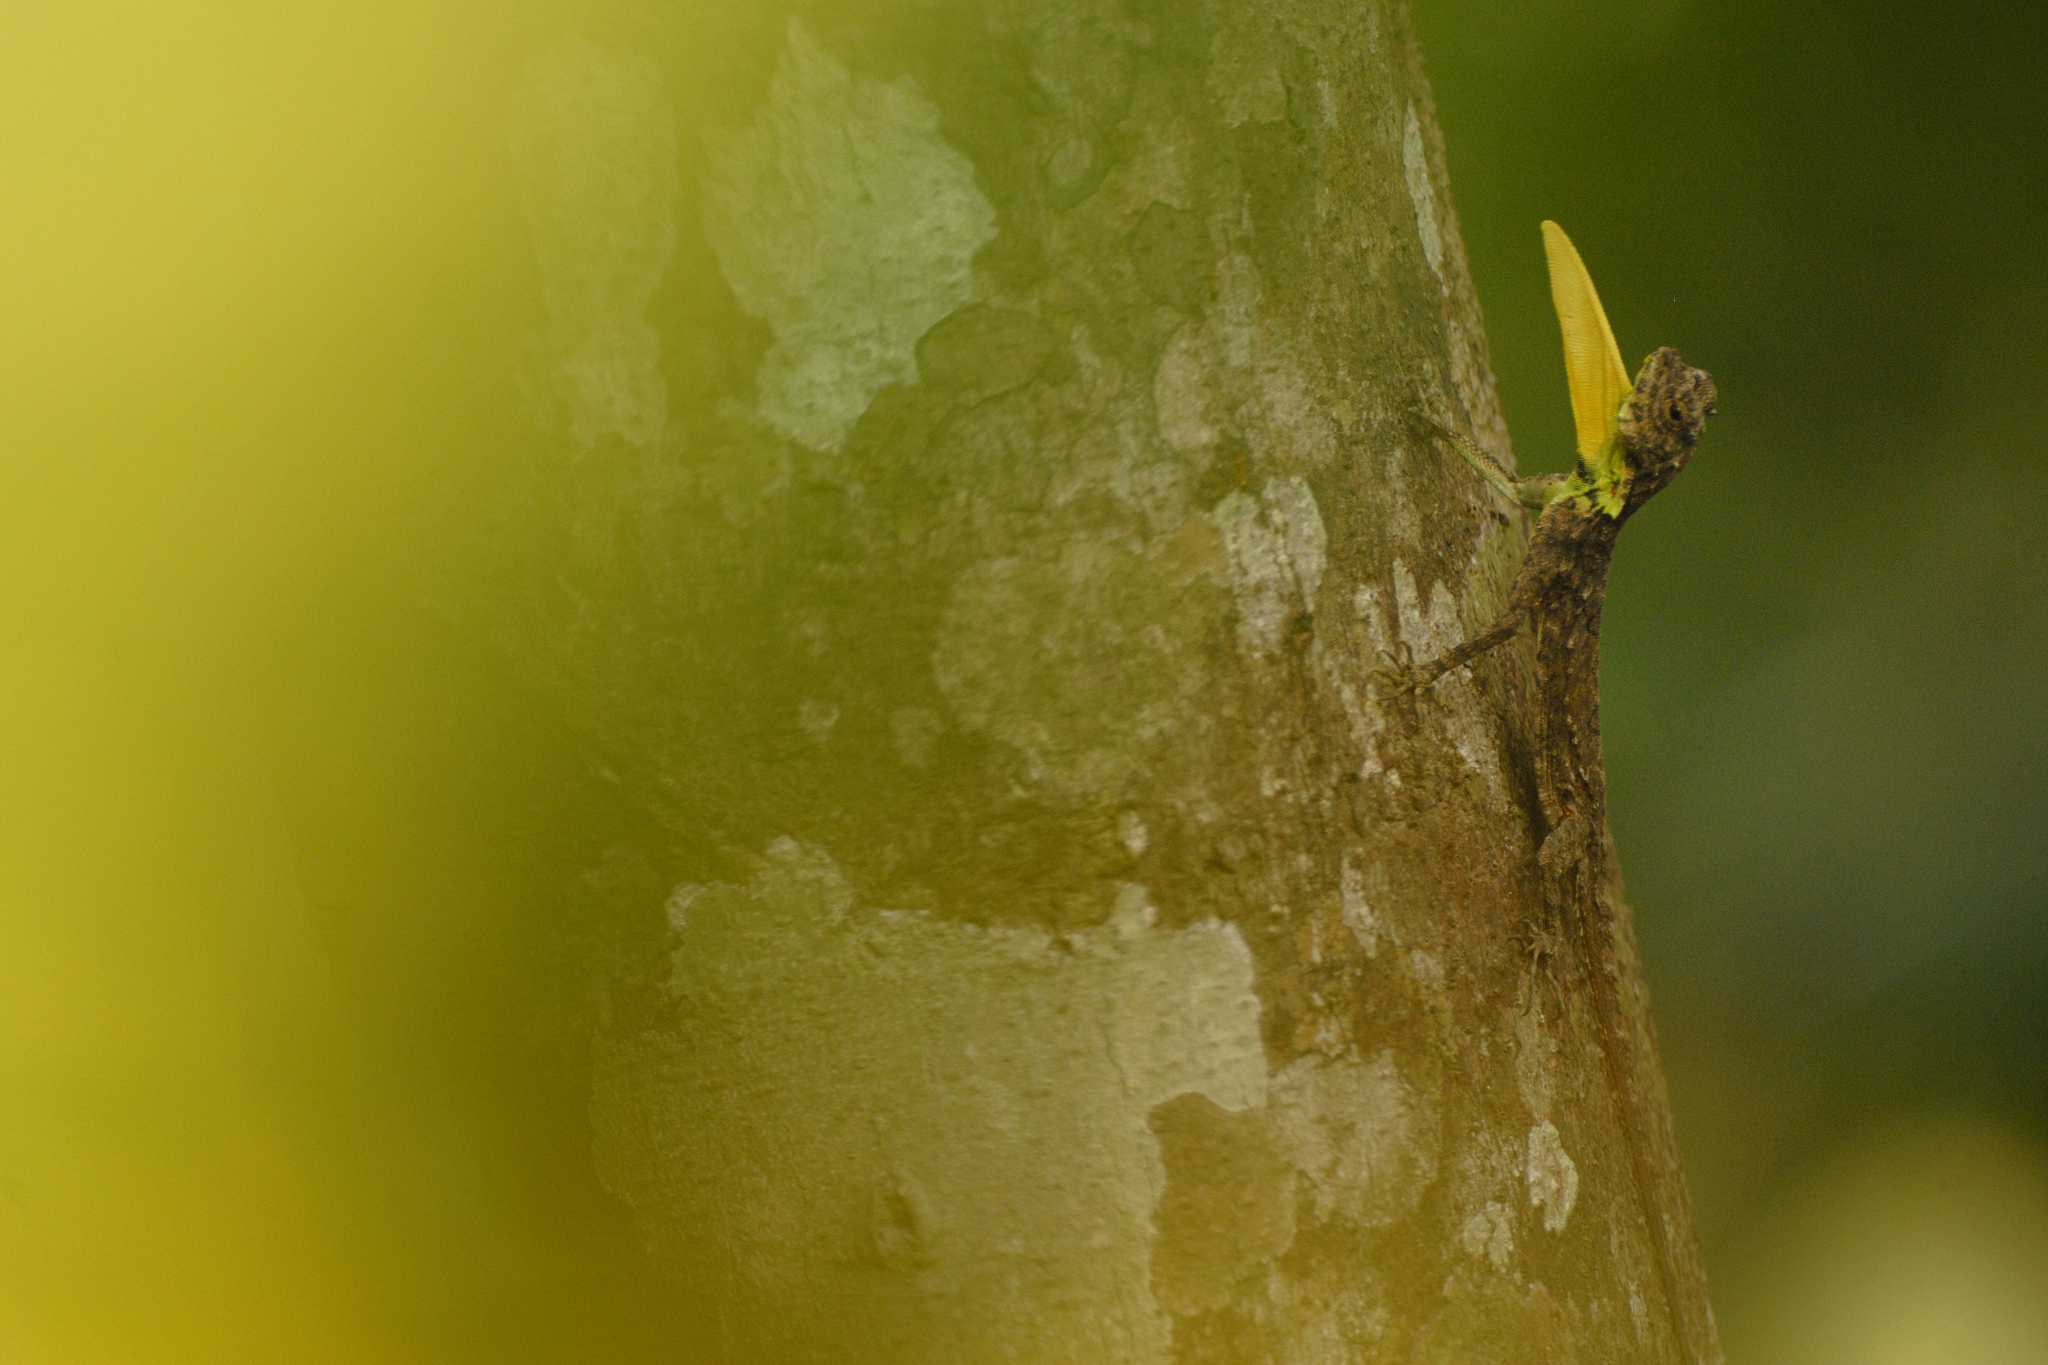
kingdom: Animalia
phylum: Chordata
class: Squamata
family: Agamidae
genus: Draco
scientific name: Draco dussumieri
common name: Southern flying lizard
